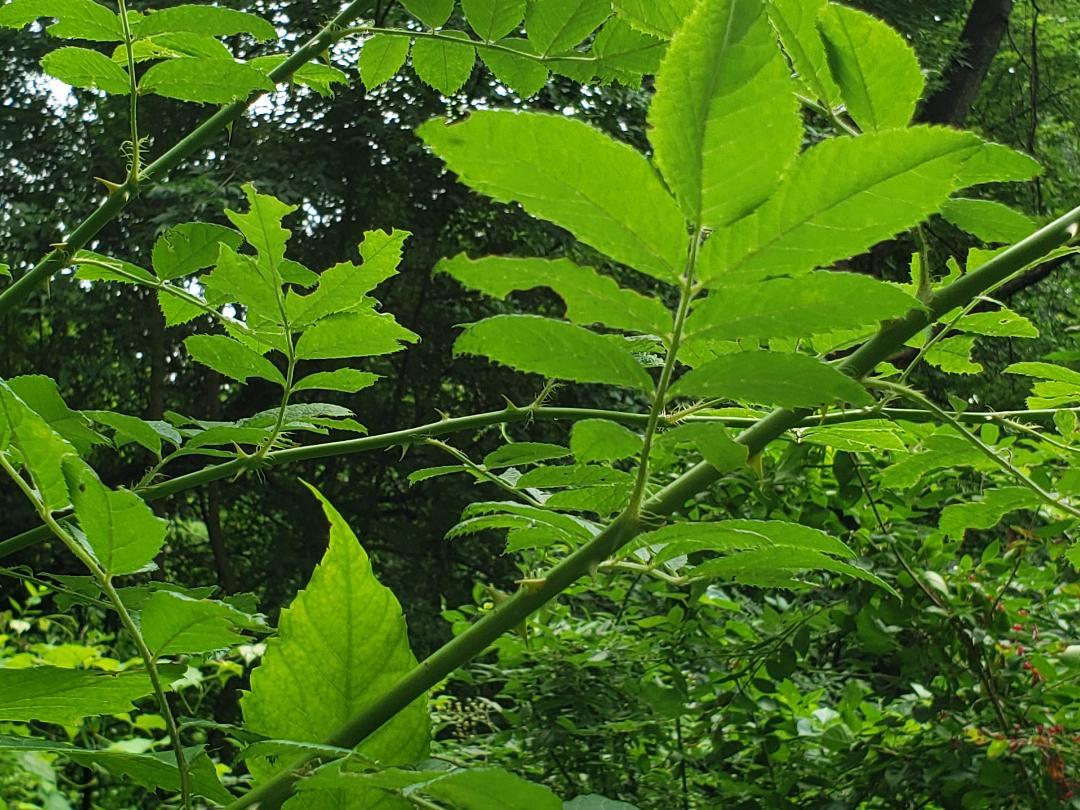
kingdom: Plantae
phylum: Tracheophyta
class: Magnoliopsida
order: Rosales
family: Rosaceae
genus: Rosa
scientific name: Rosa multiflora
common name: Multiflora rose
